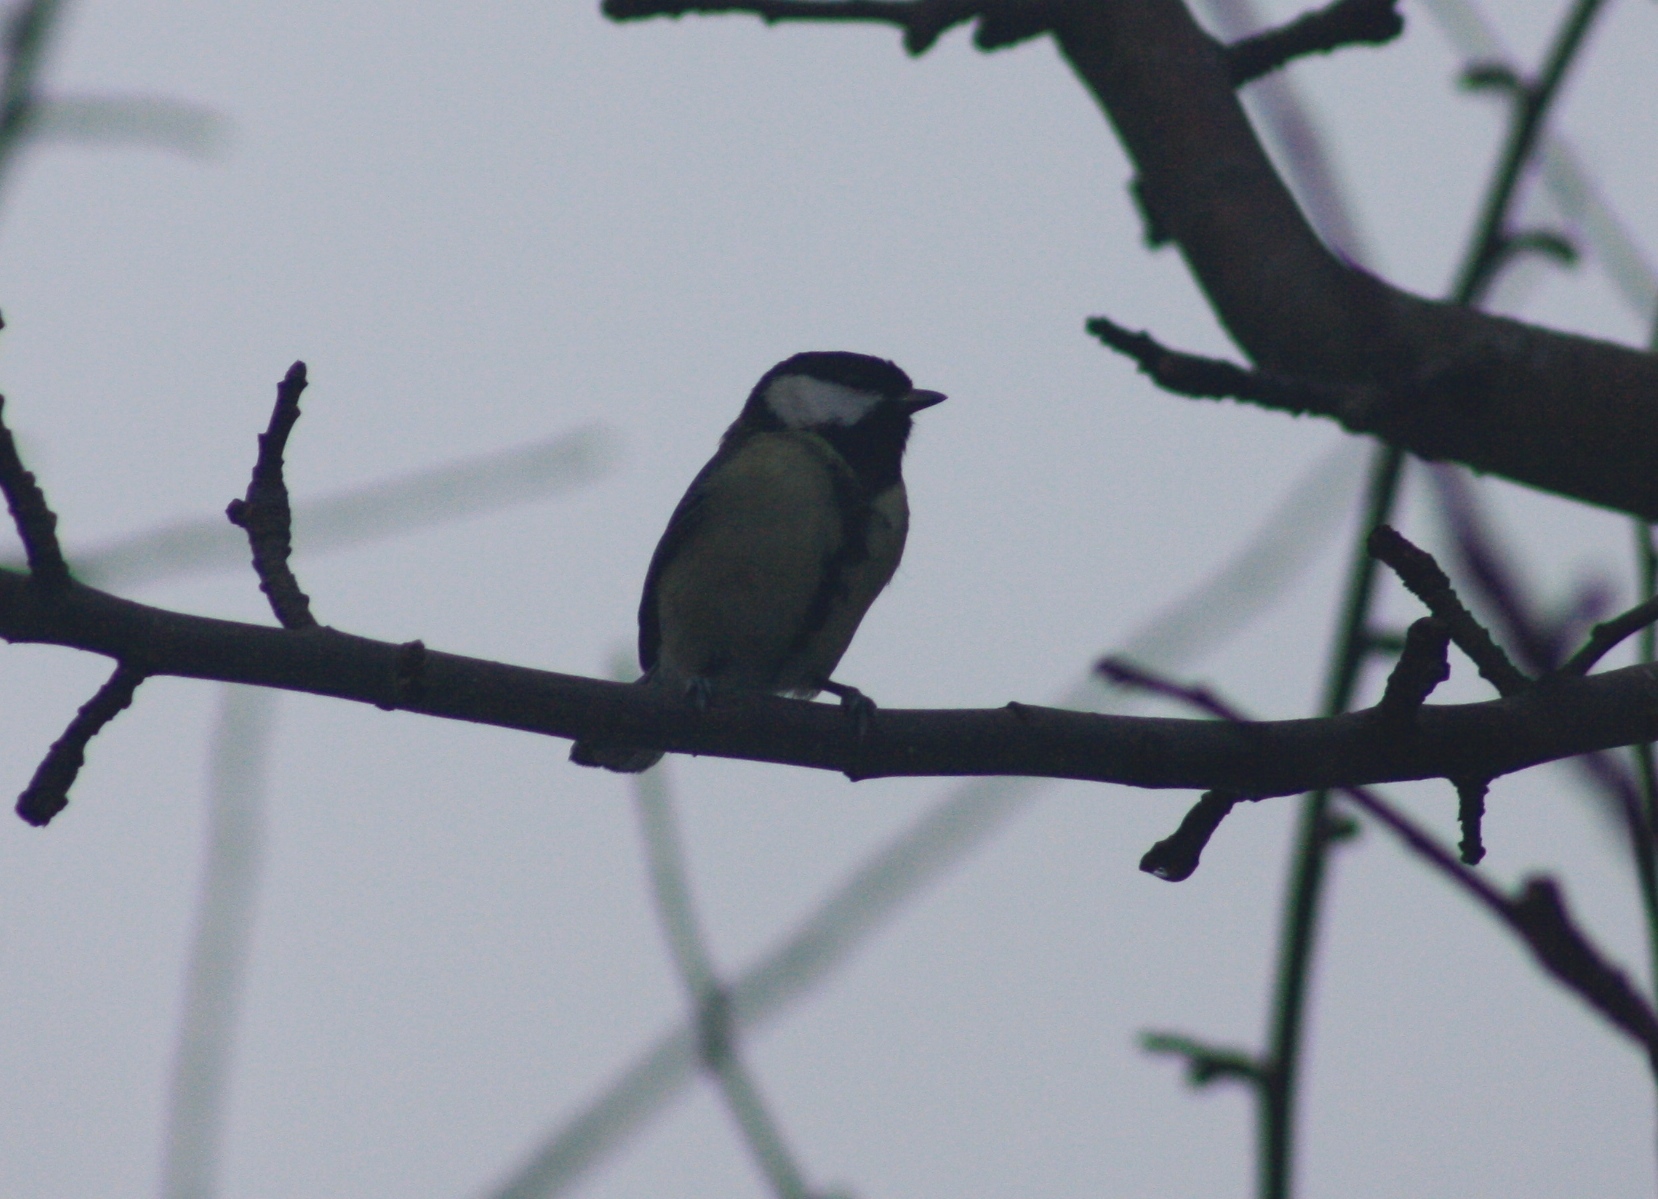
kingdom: Animalia
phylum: Chordata
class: Aves
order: Passeriformes
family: Paridae
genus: Parus
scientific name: Parus major
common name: Great tit
